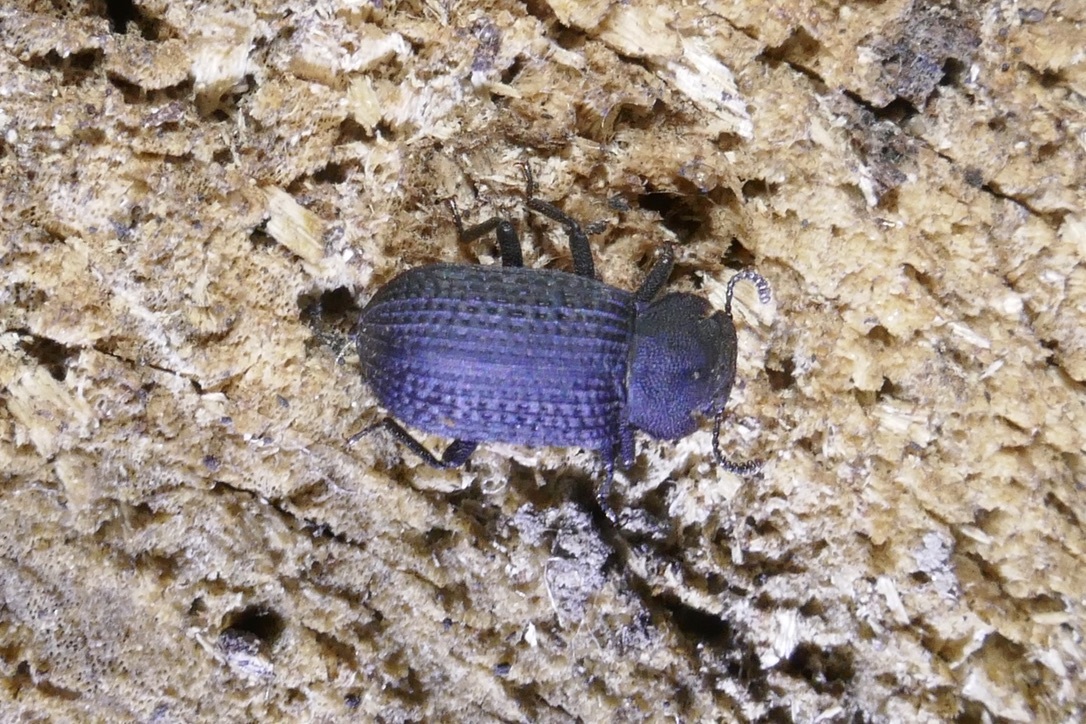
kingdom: Animalia
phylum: Arthropoda
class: Insecta
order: Coleoptera
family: Tenebrionidae
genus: Bolitophagus
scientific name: Bolitophagus reticulatus
